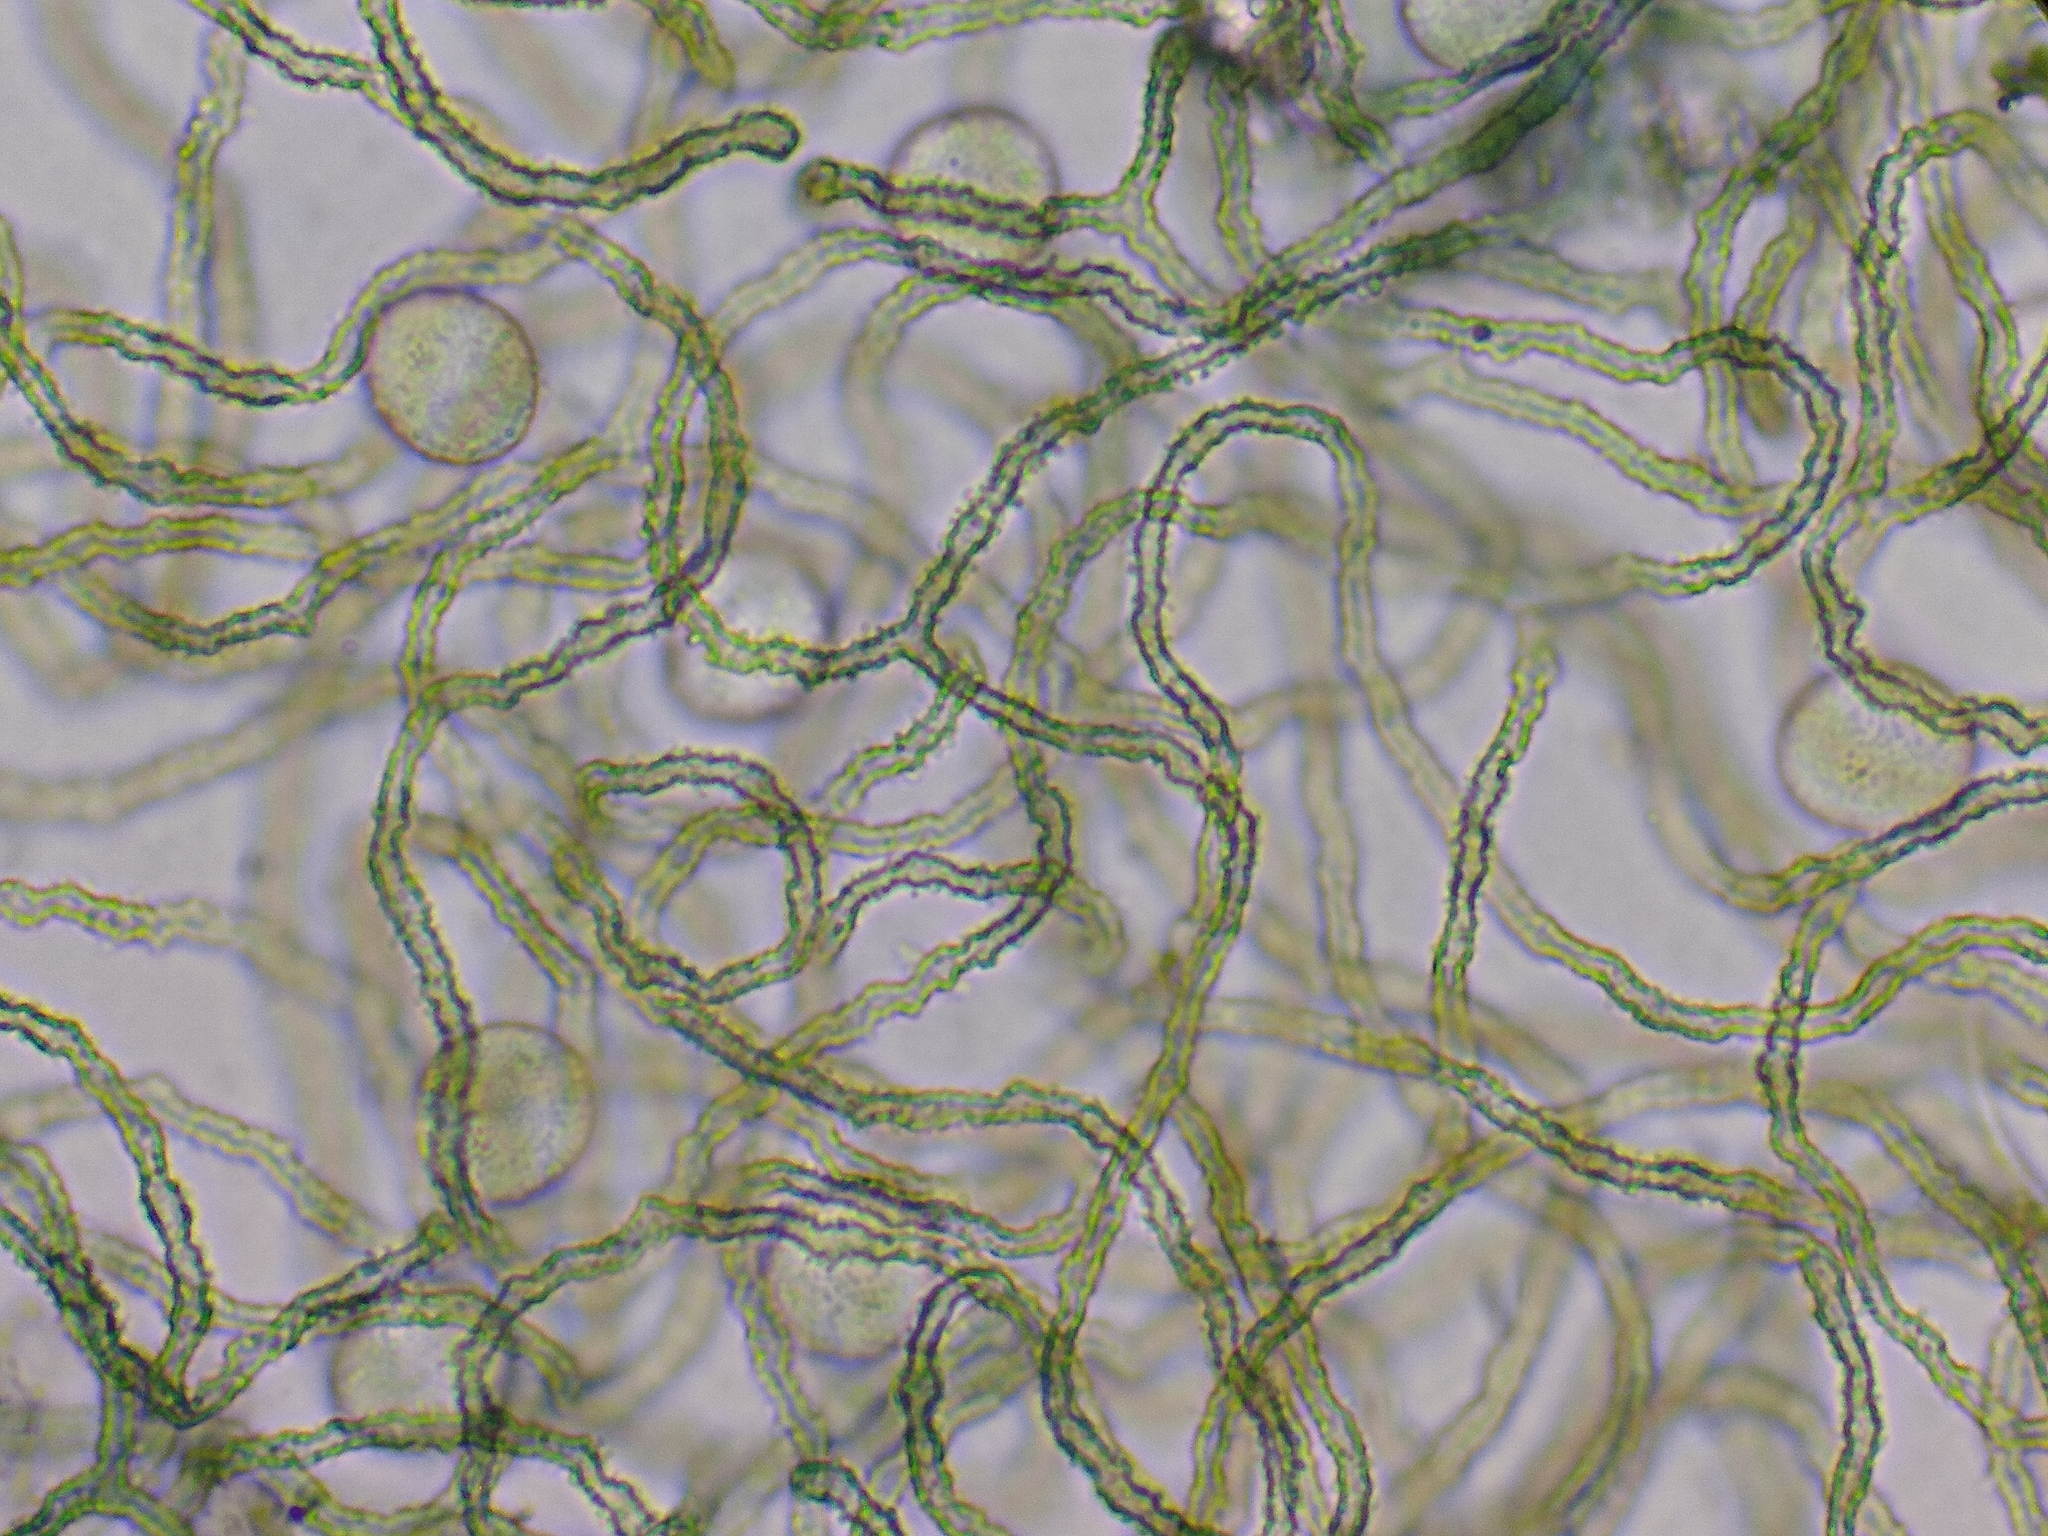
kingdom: Protozoa
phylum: Mycetozoa
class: Myxomycetes
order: Trichiales
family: Trichiaceae
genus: Gulielmina
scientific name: Gulielmina vermicularis
